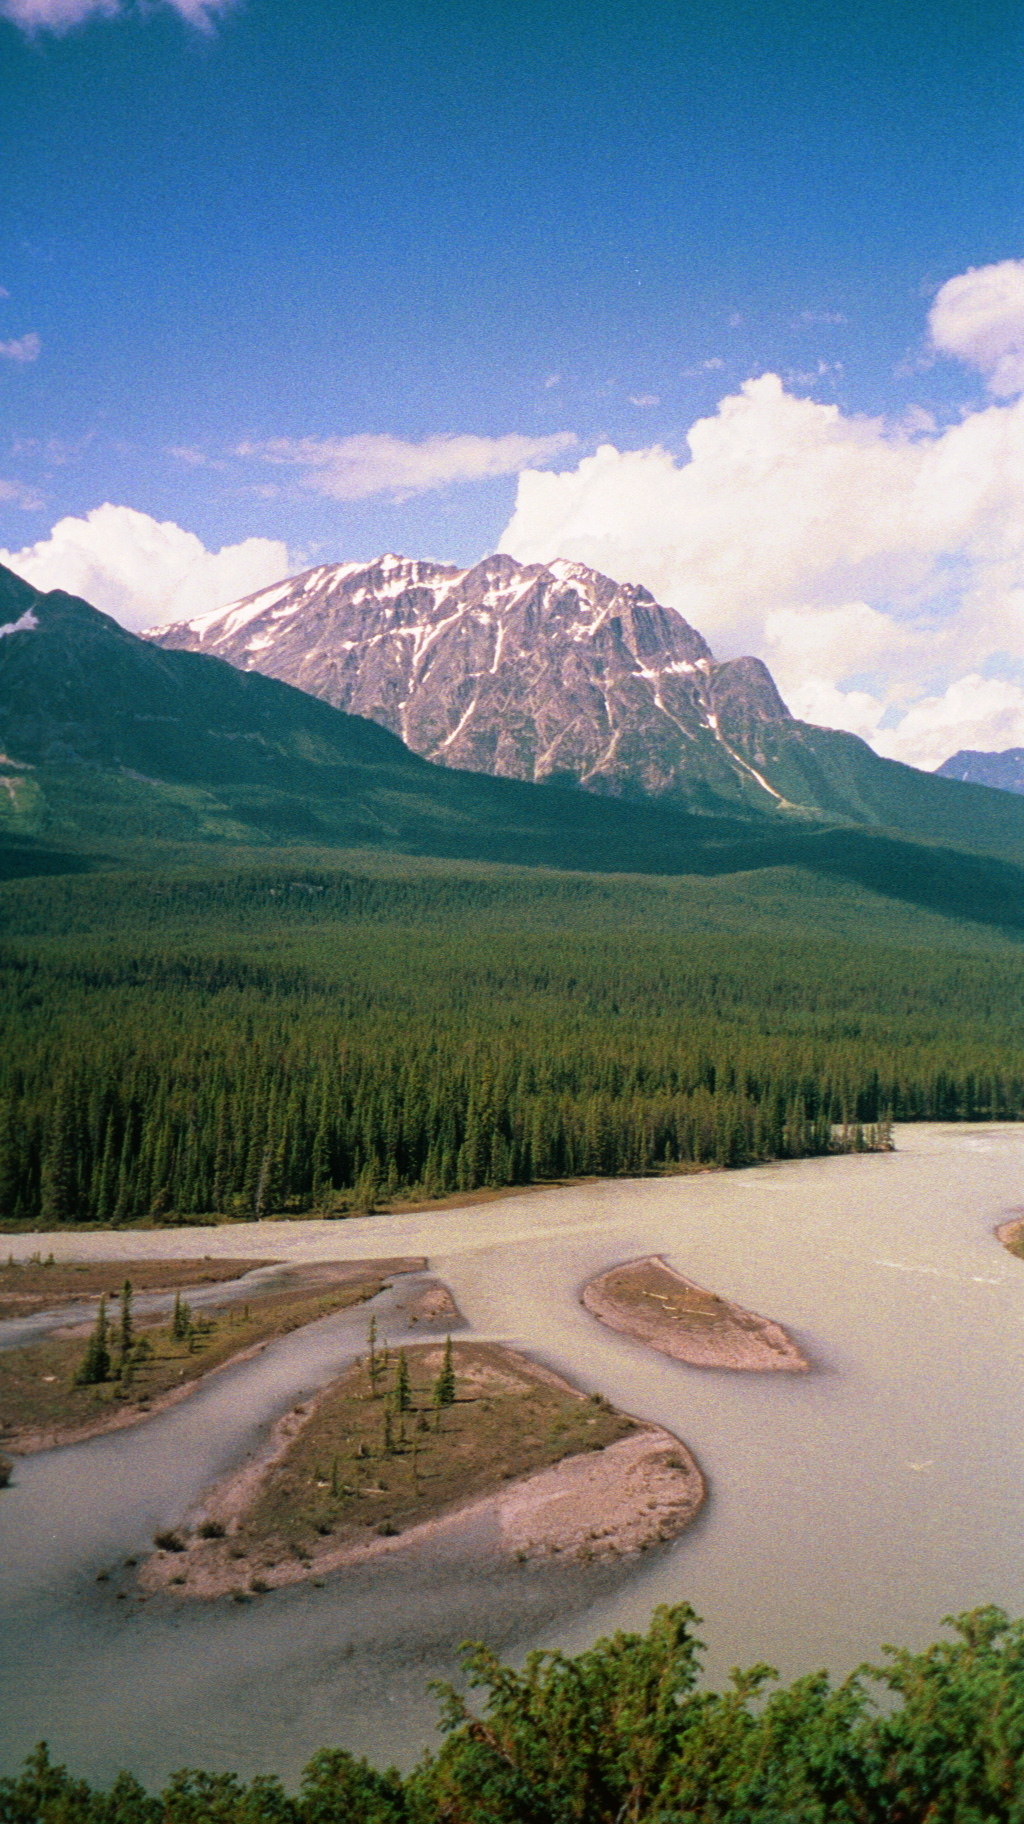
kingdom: Plantae
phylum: Tracheophyta
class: Pinopsida
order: Pinales
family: Pinaceae
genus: Picea
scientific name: Picea
